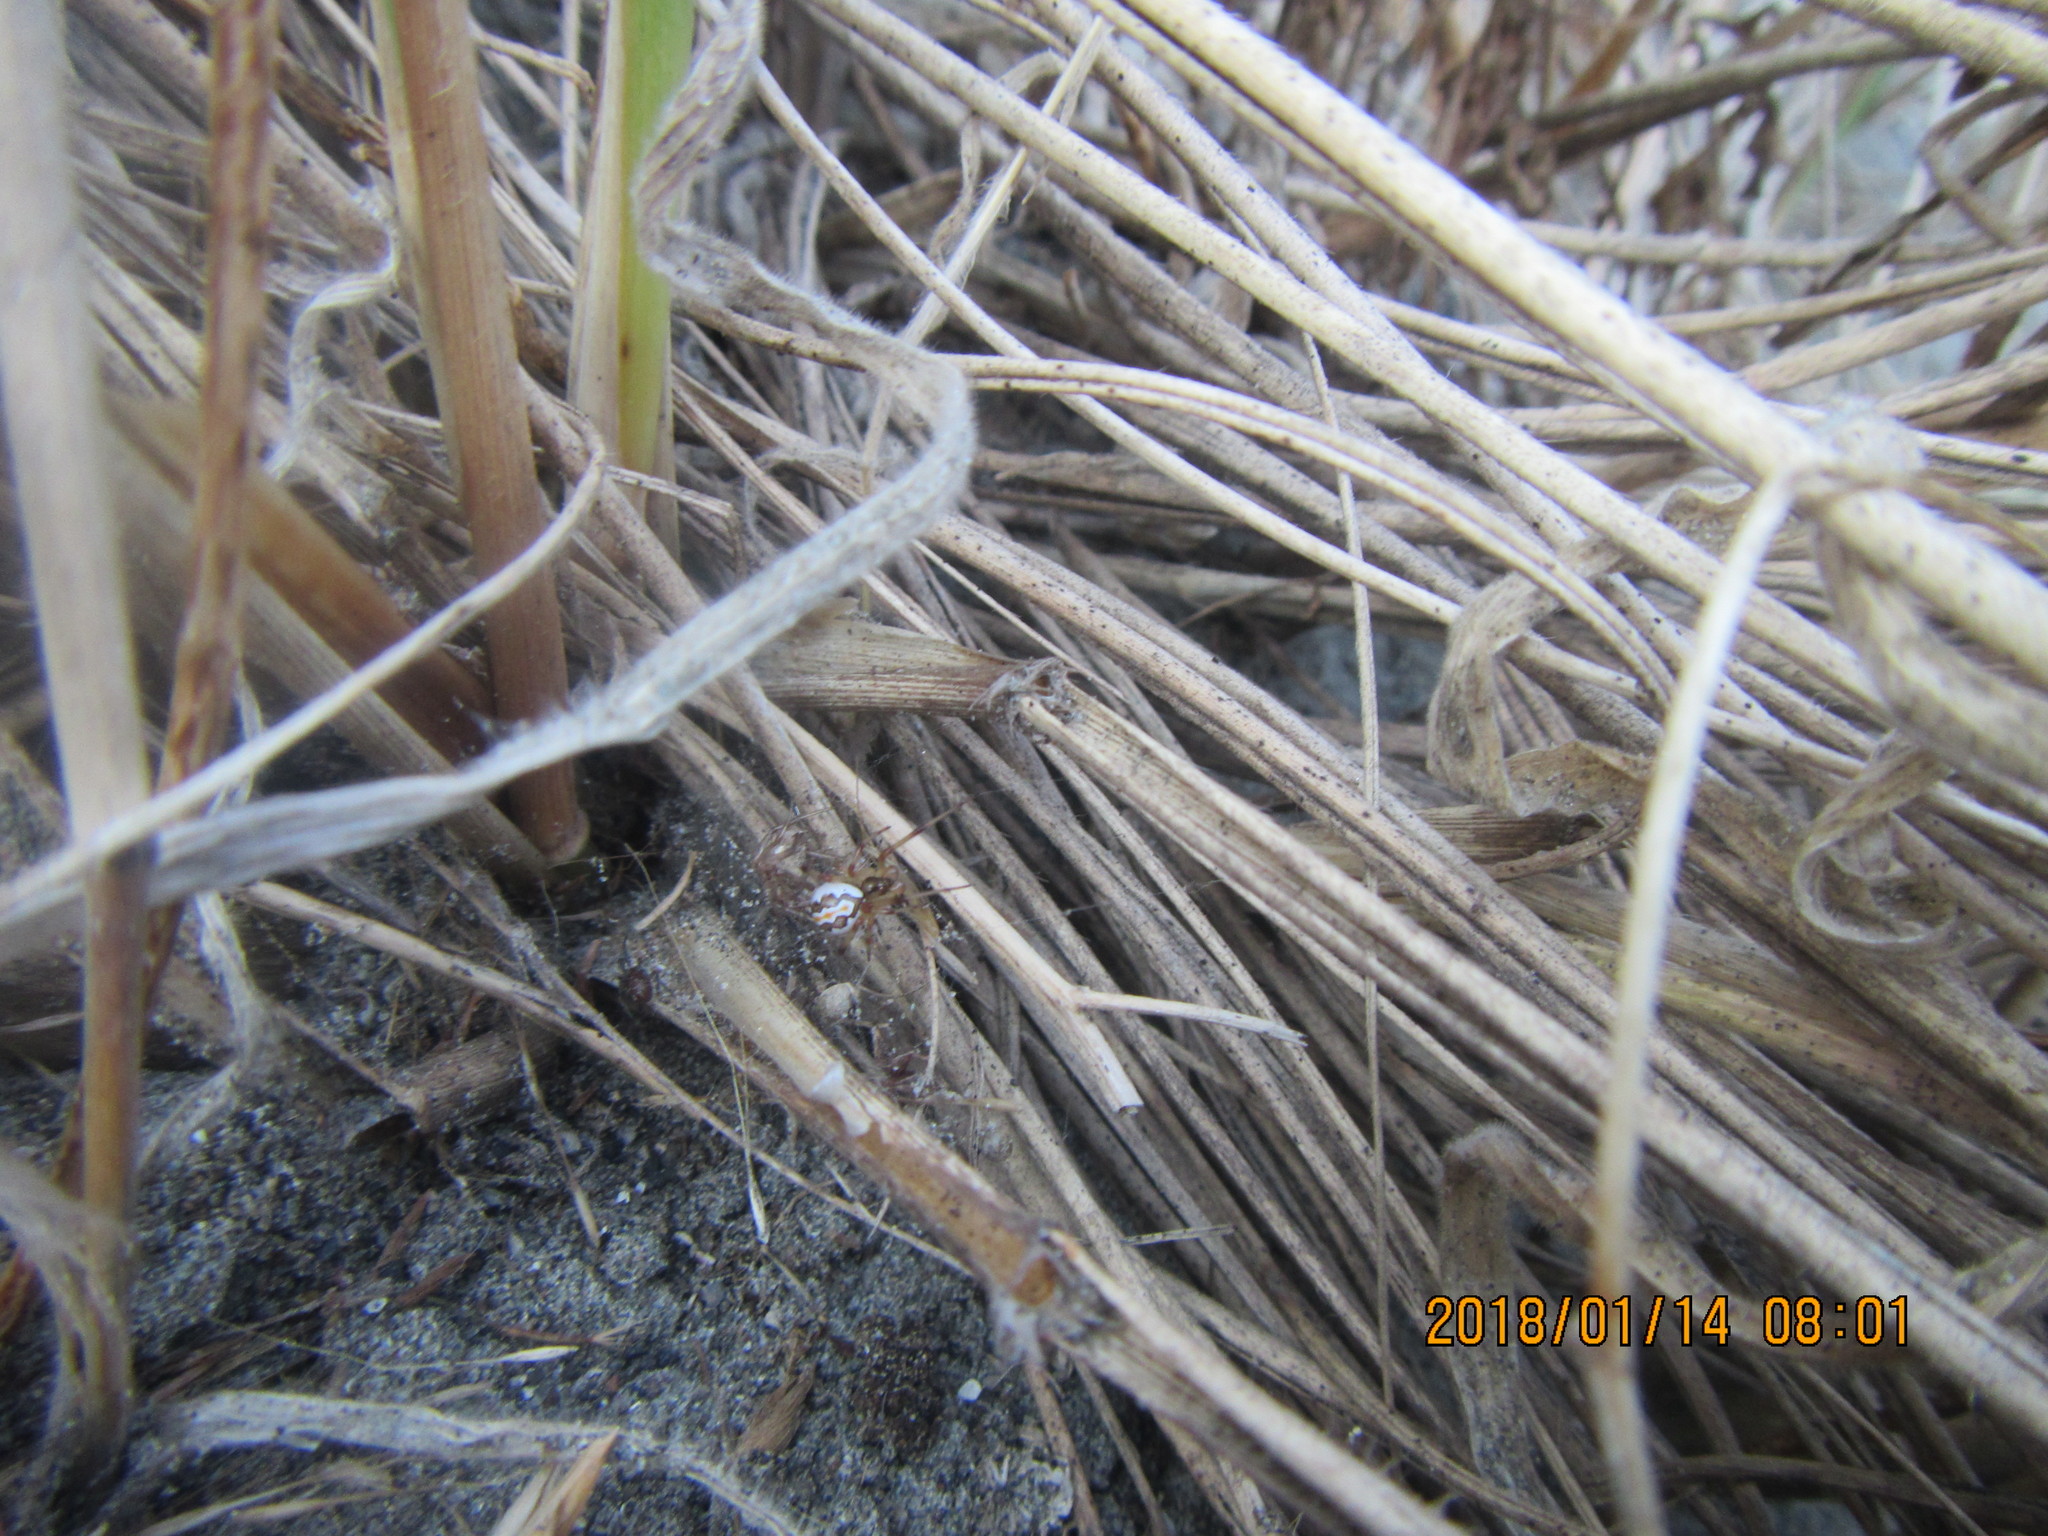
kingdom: Animalia
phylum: Arthropoda
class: Arachnida
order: Araneae
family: Theridiidae
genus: Latrodectus
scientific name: Latrodectus katipo
